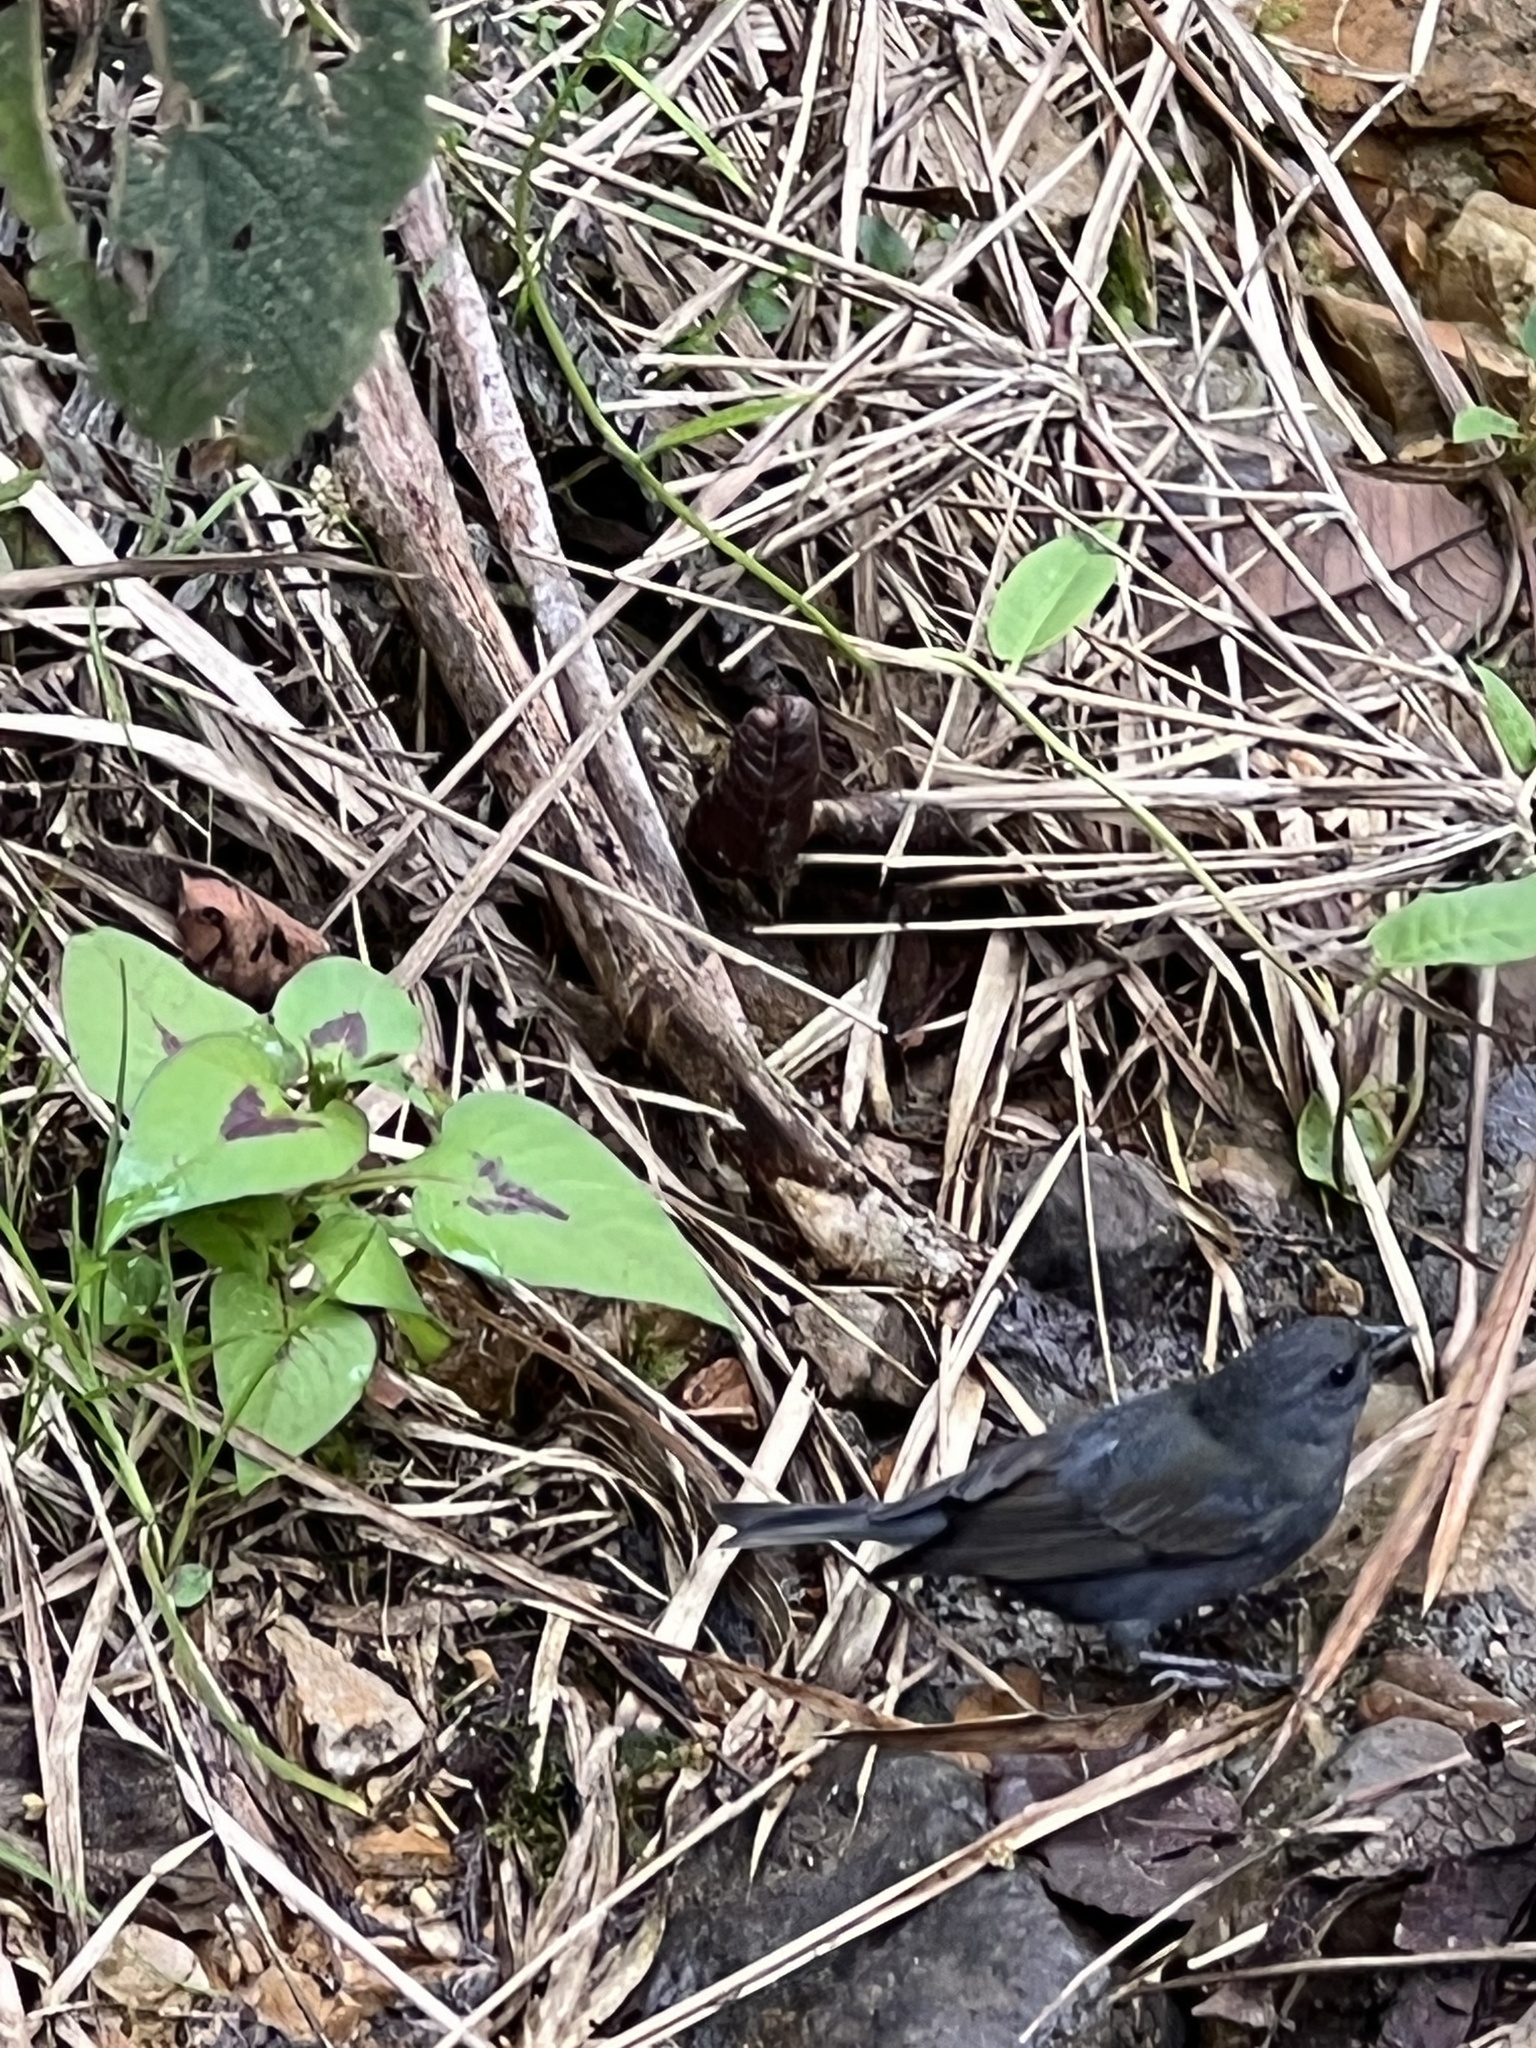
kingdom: Animalia
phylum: Chordata
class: Aves
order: Passeriformes
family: Thraupidae
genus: Haplospiza
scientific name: Haplospiza rustica
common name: Slaty finch
